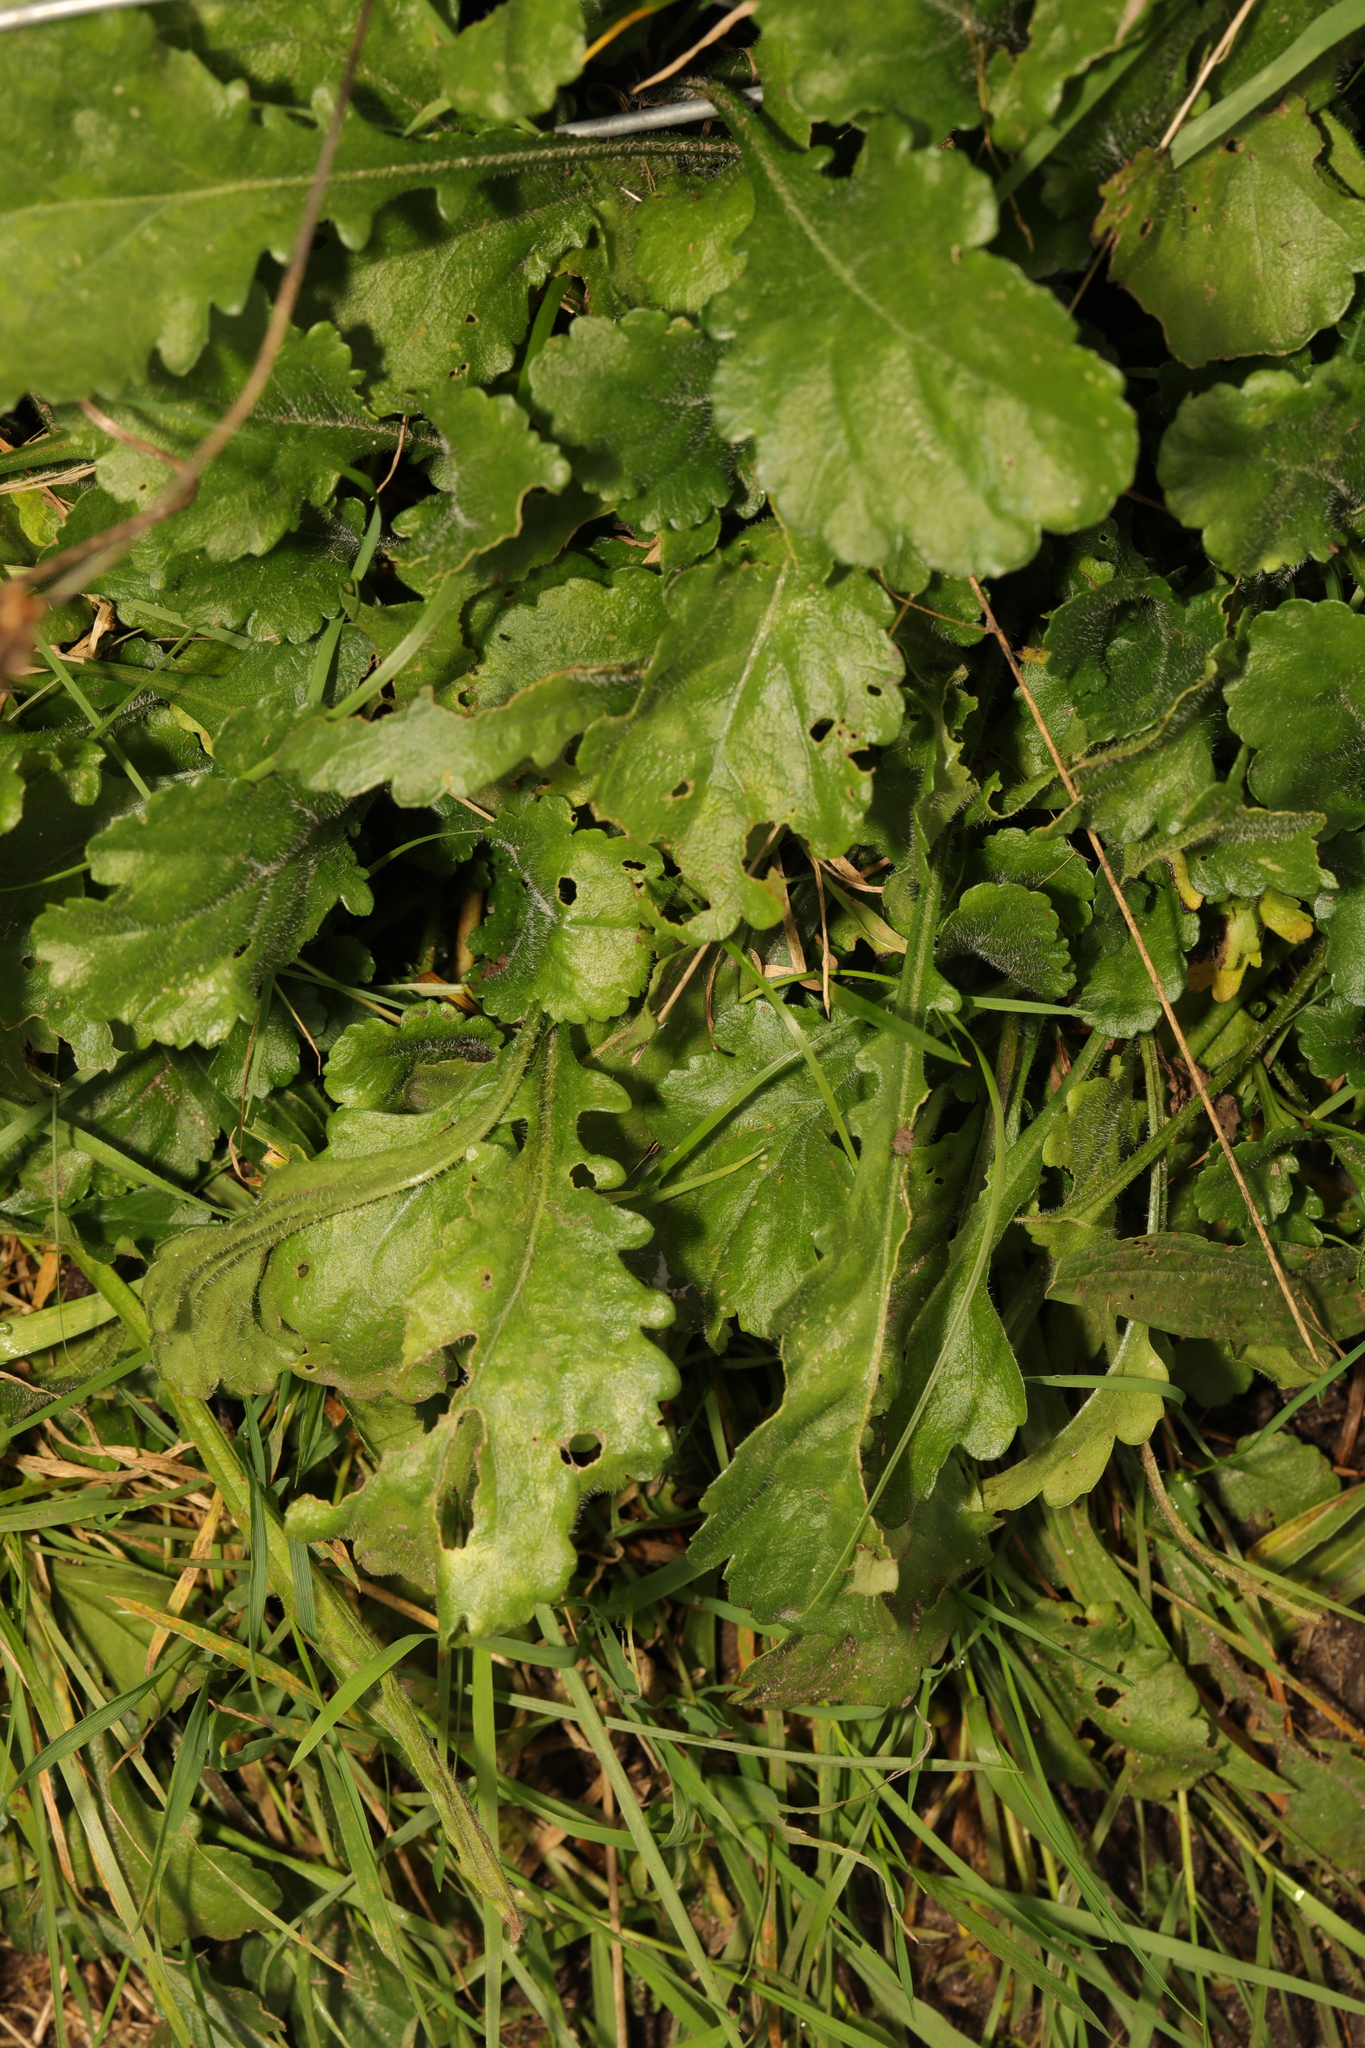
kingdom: Plantae
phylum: Tracheophyta
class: Magnoliopsida
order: Asterales
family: Asteraceae
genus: Leucanthemum
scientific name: Leucanthemum vulgare
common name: Oxeye daisy
